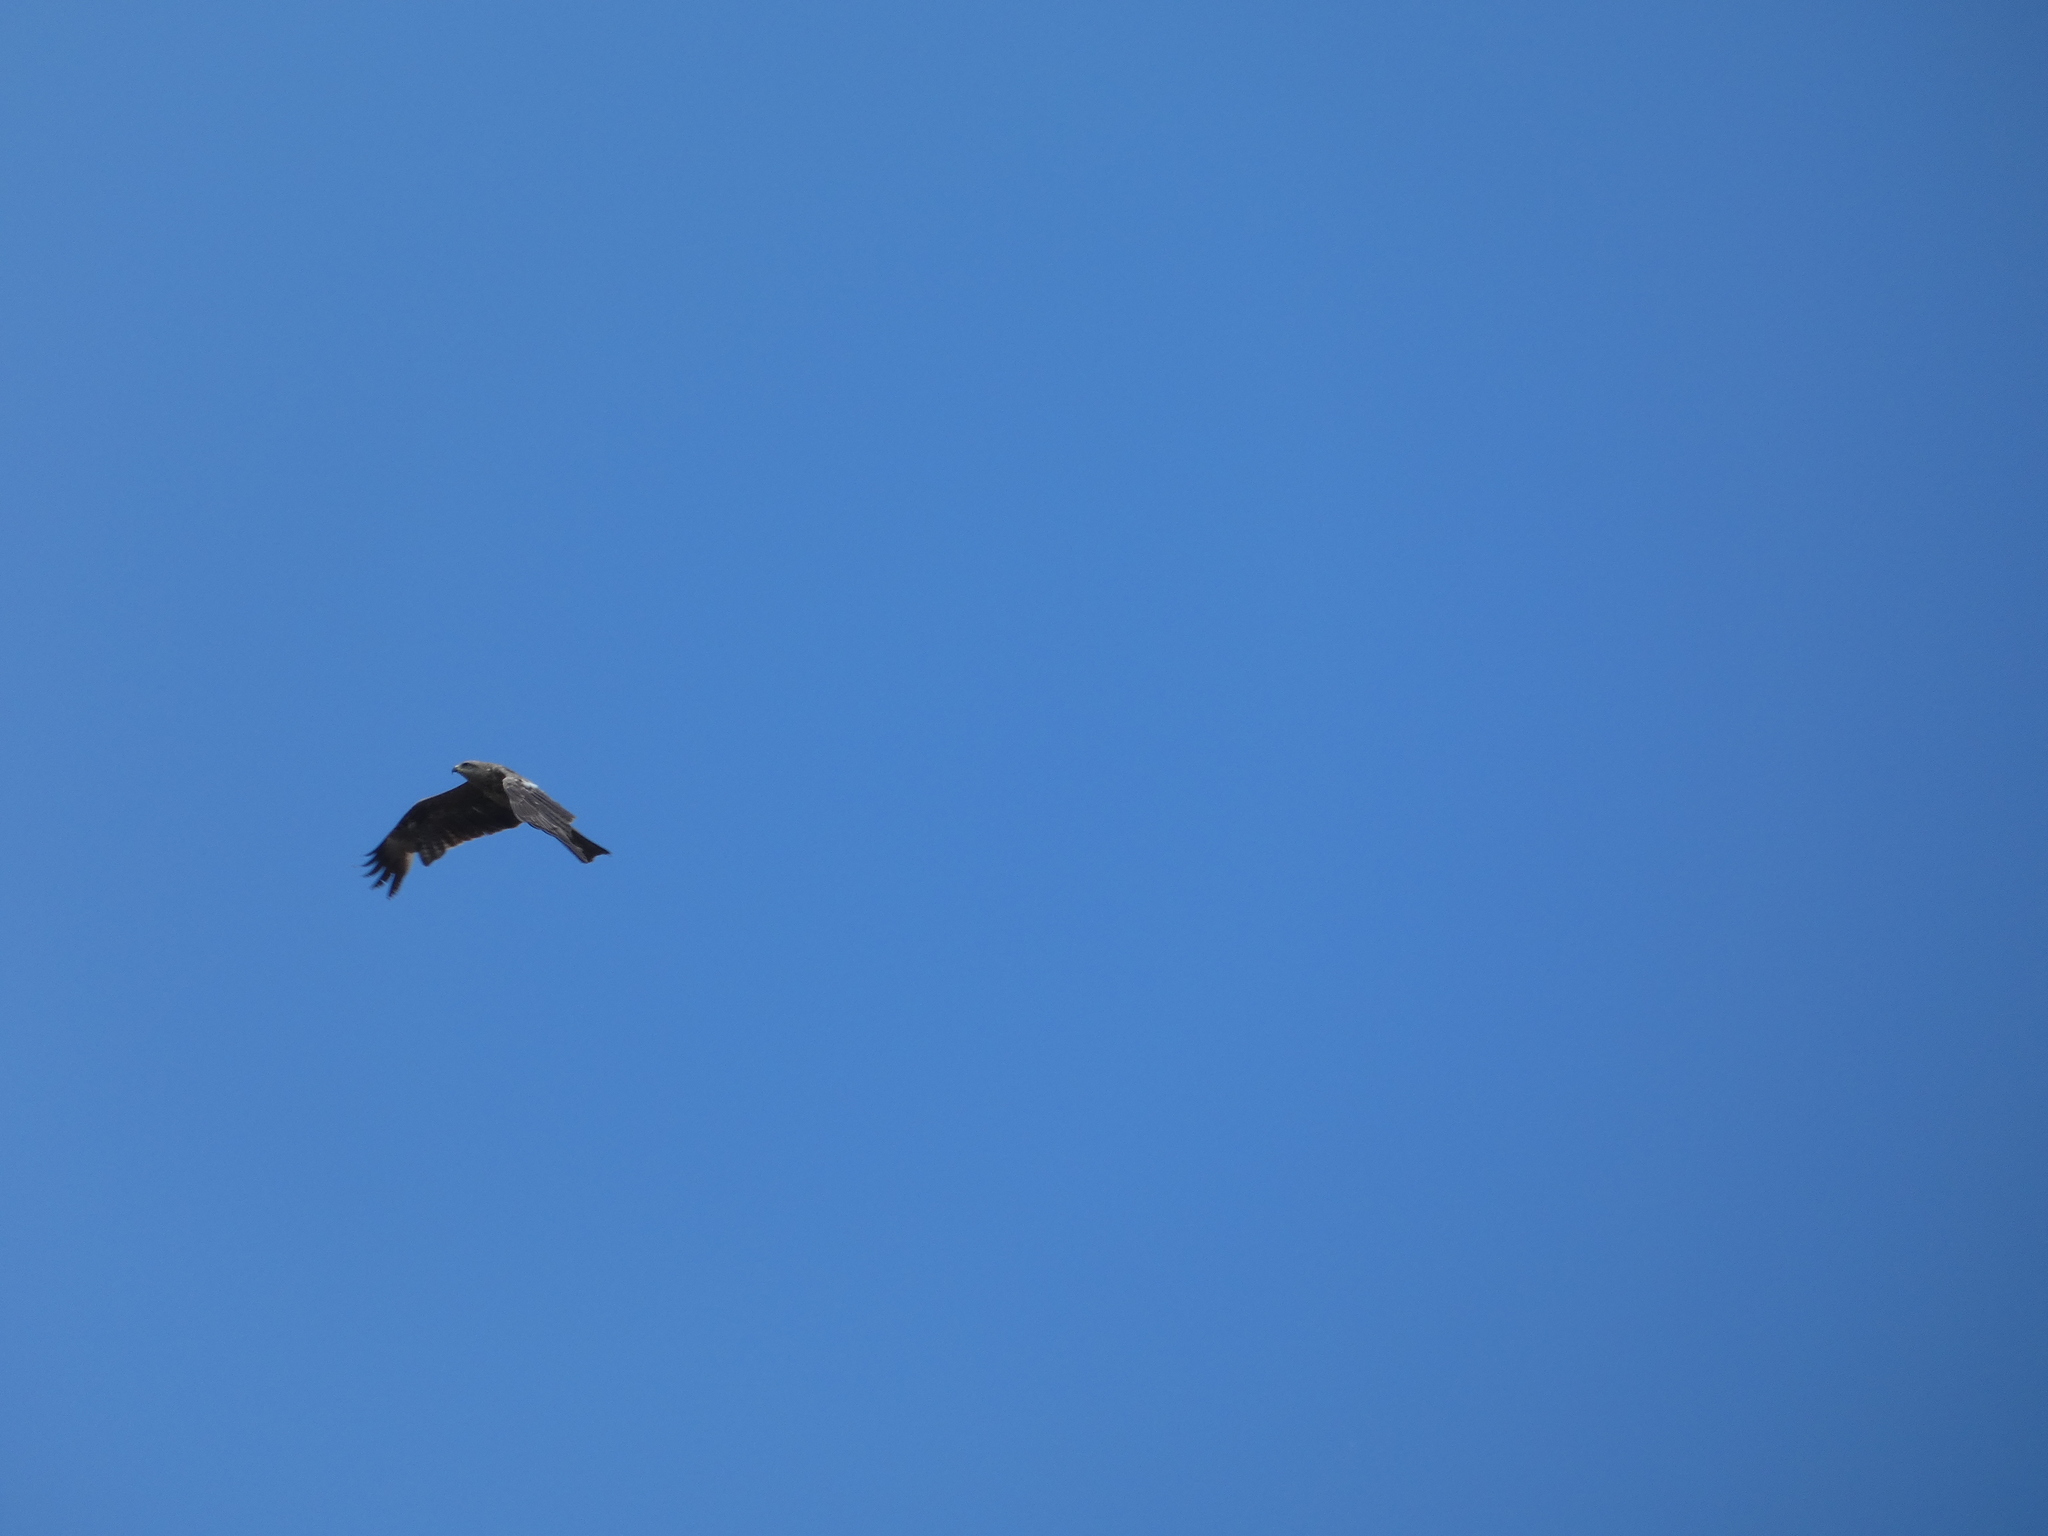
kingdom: Animalia
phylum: Chordata
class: Aves
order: Accipitriformes
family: Accipitridae
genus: Milvus
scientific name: Milvus migrans
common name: Black kite
